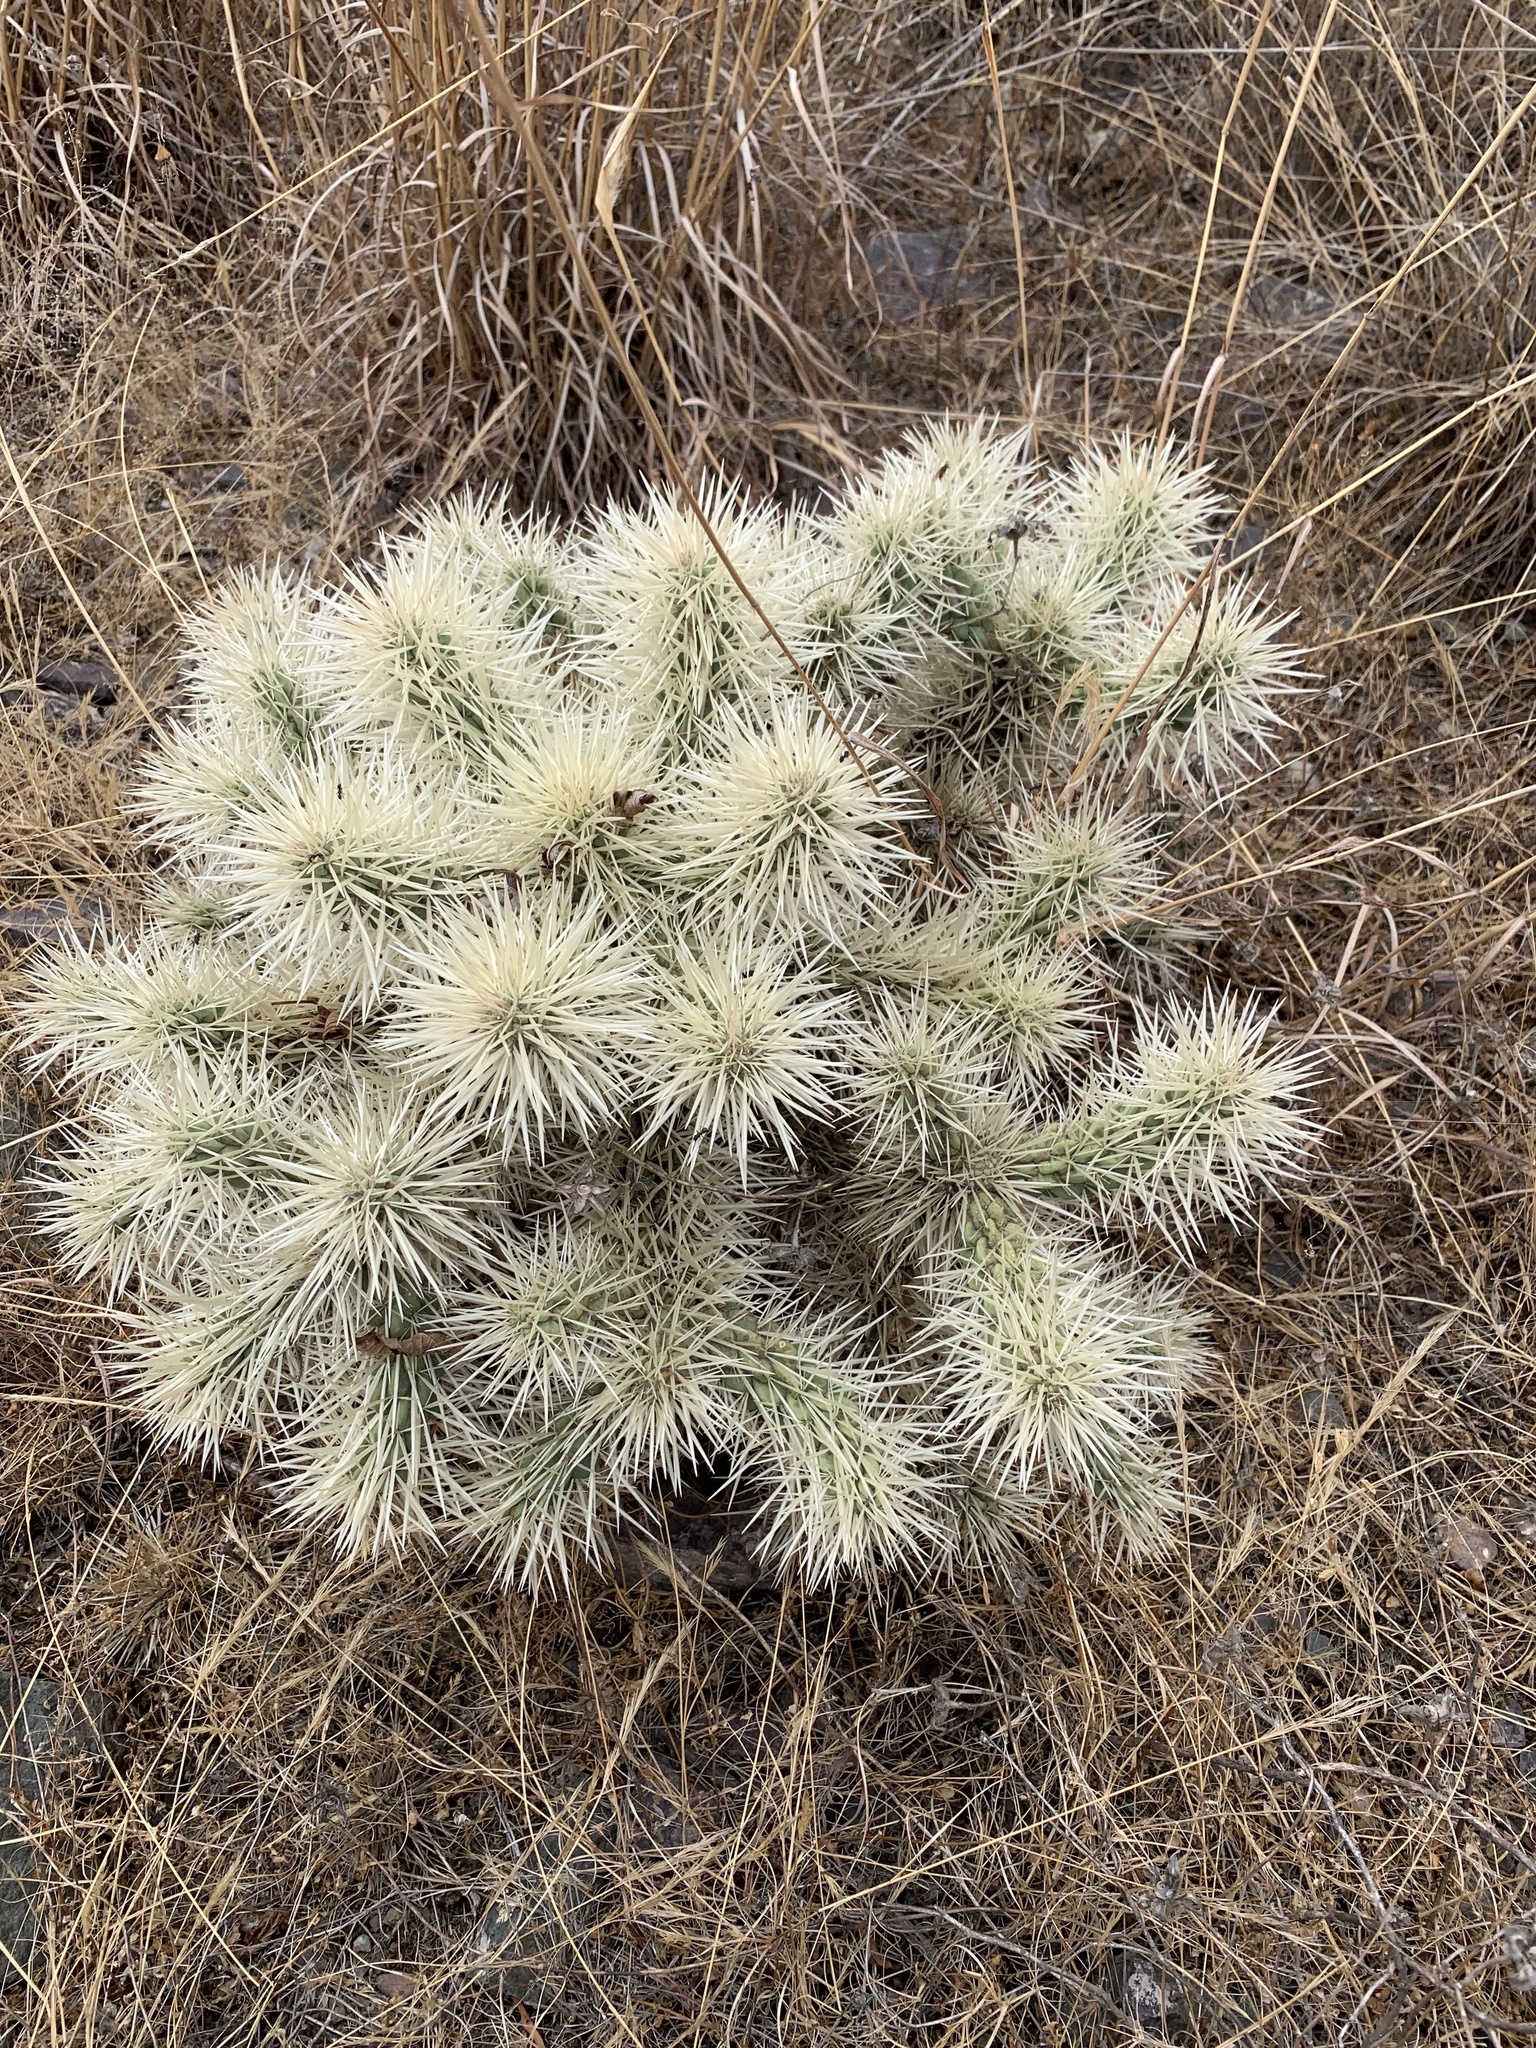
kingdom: Plantae
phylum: Tracheophyta
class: Magnoliopsida
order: Caryophyllales
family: Cactaceae
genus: Cylindropuntia
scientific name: Cylindropuntia tunicata
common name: Sheathed cholla
